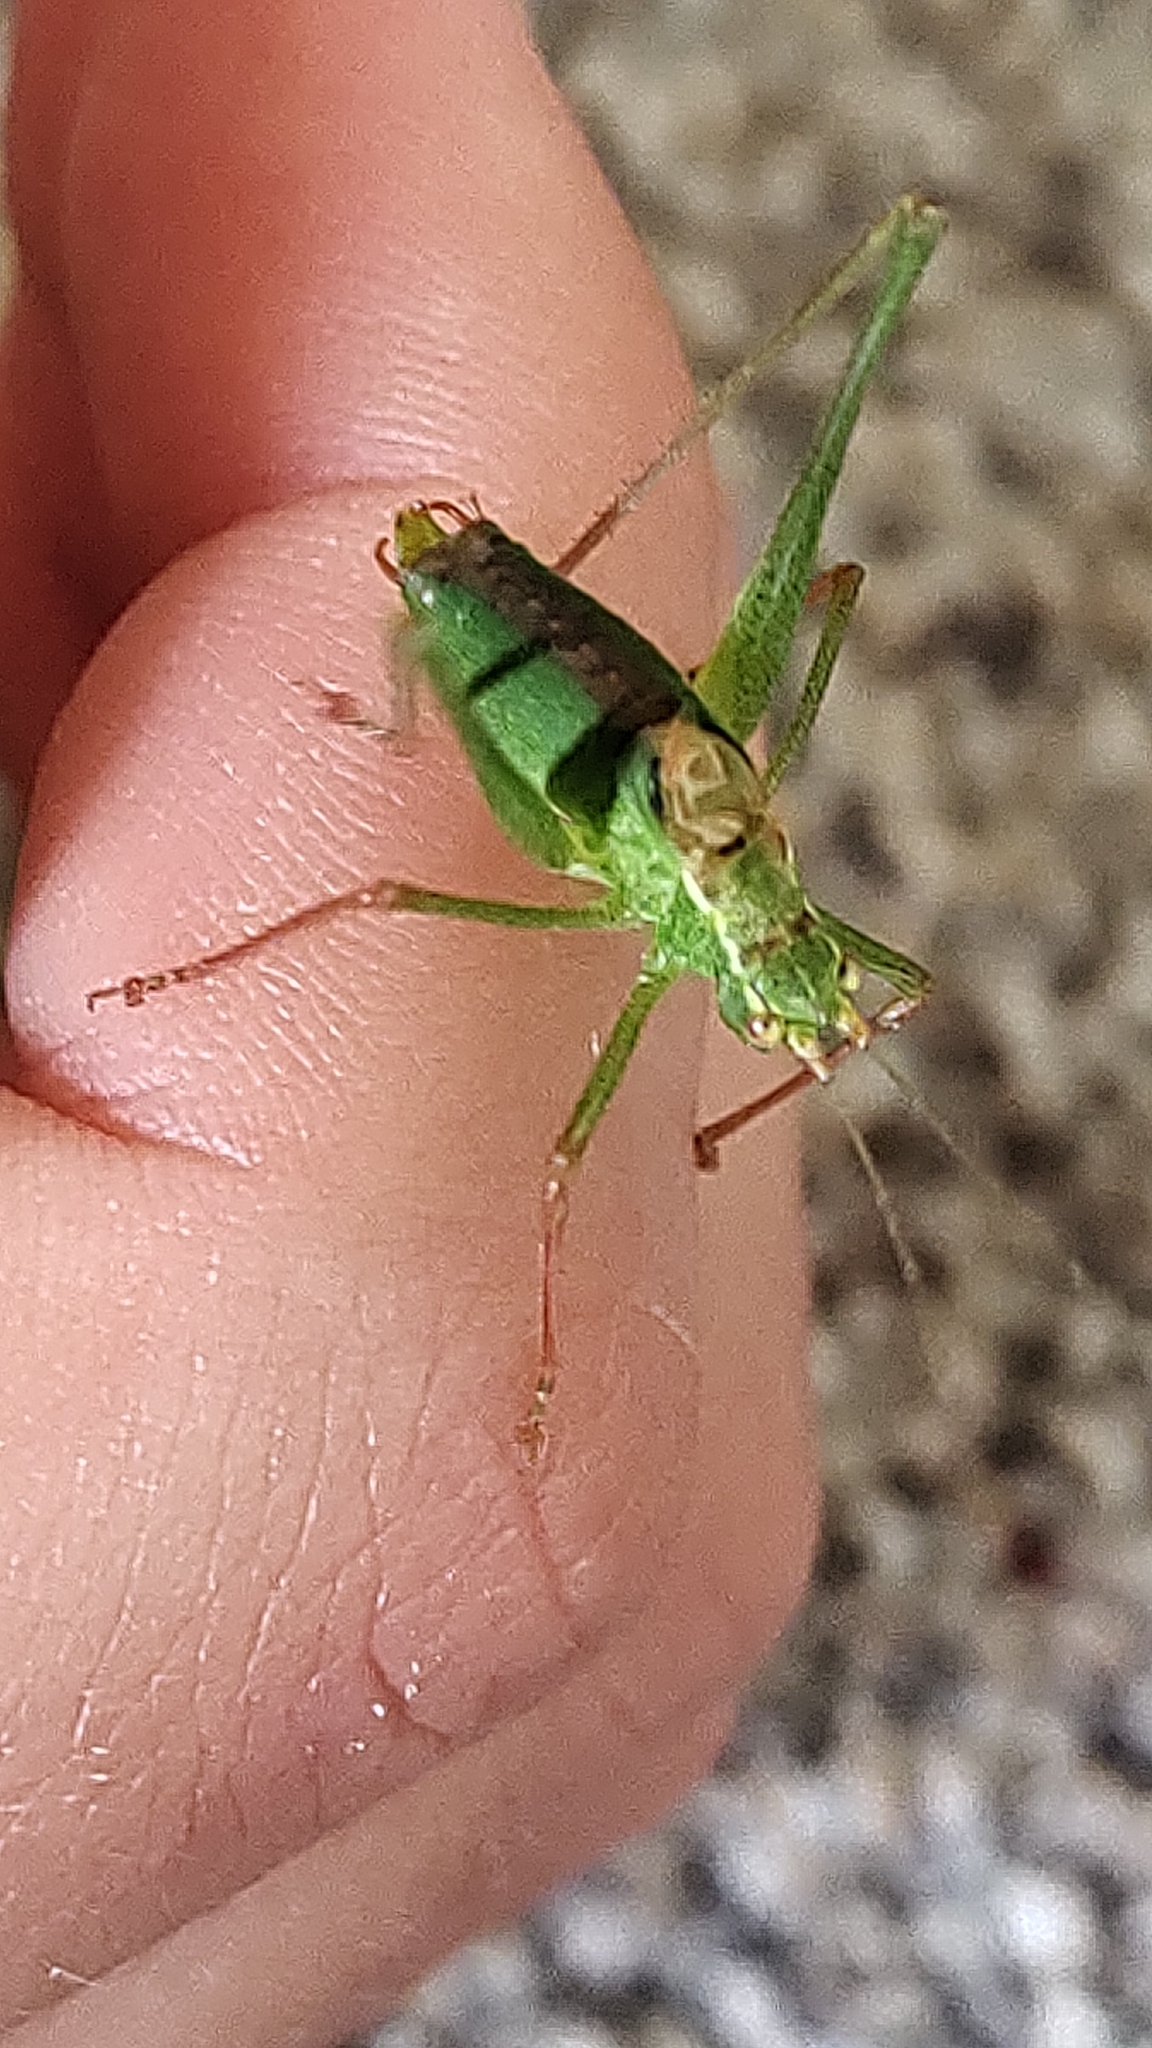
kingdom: Animalia
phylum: Arthropoda
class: Insecta
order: Orthoptera
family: Tettigoniidae
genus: Leptophyes
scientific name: Leptophyes punctatissima
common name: Speckled bush-cricket
